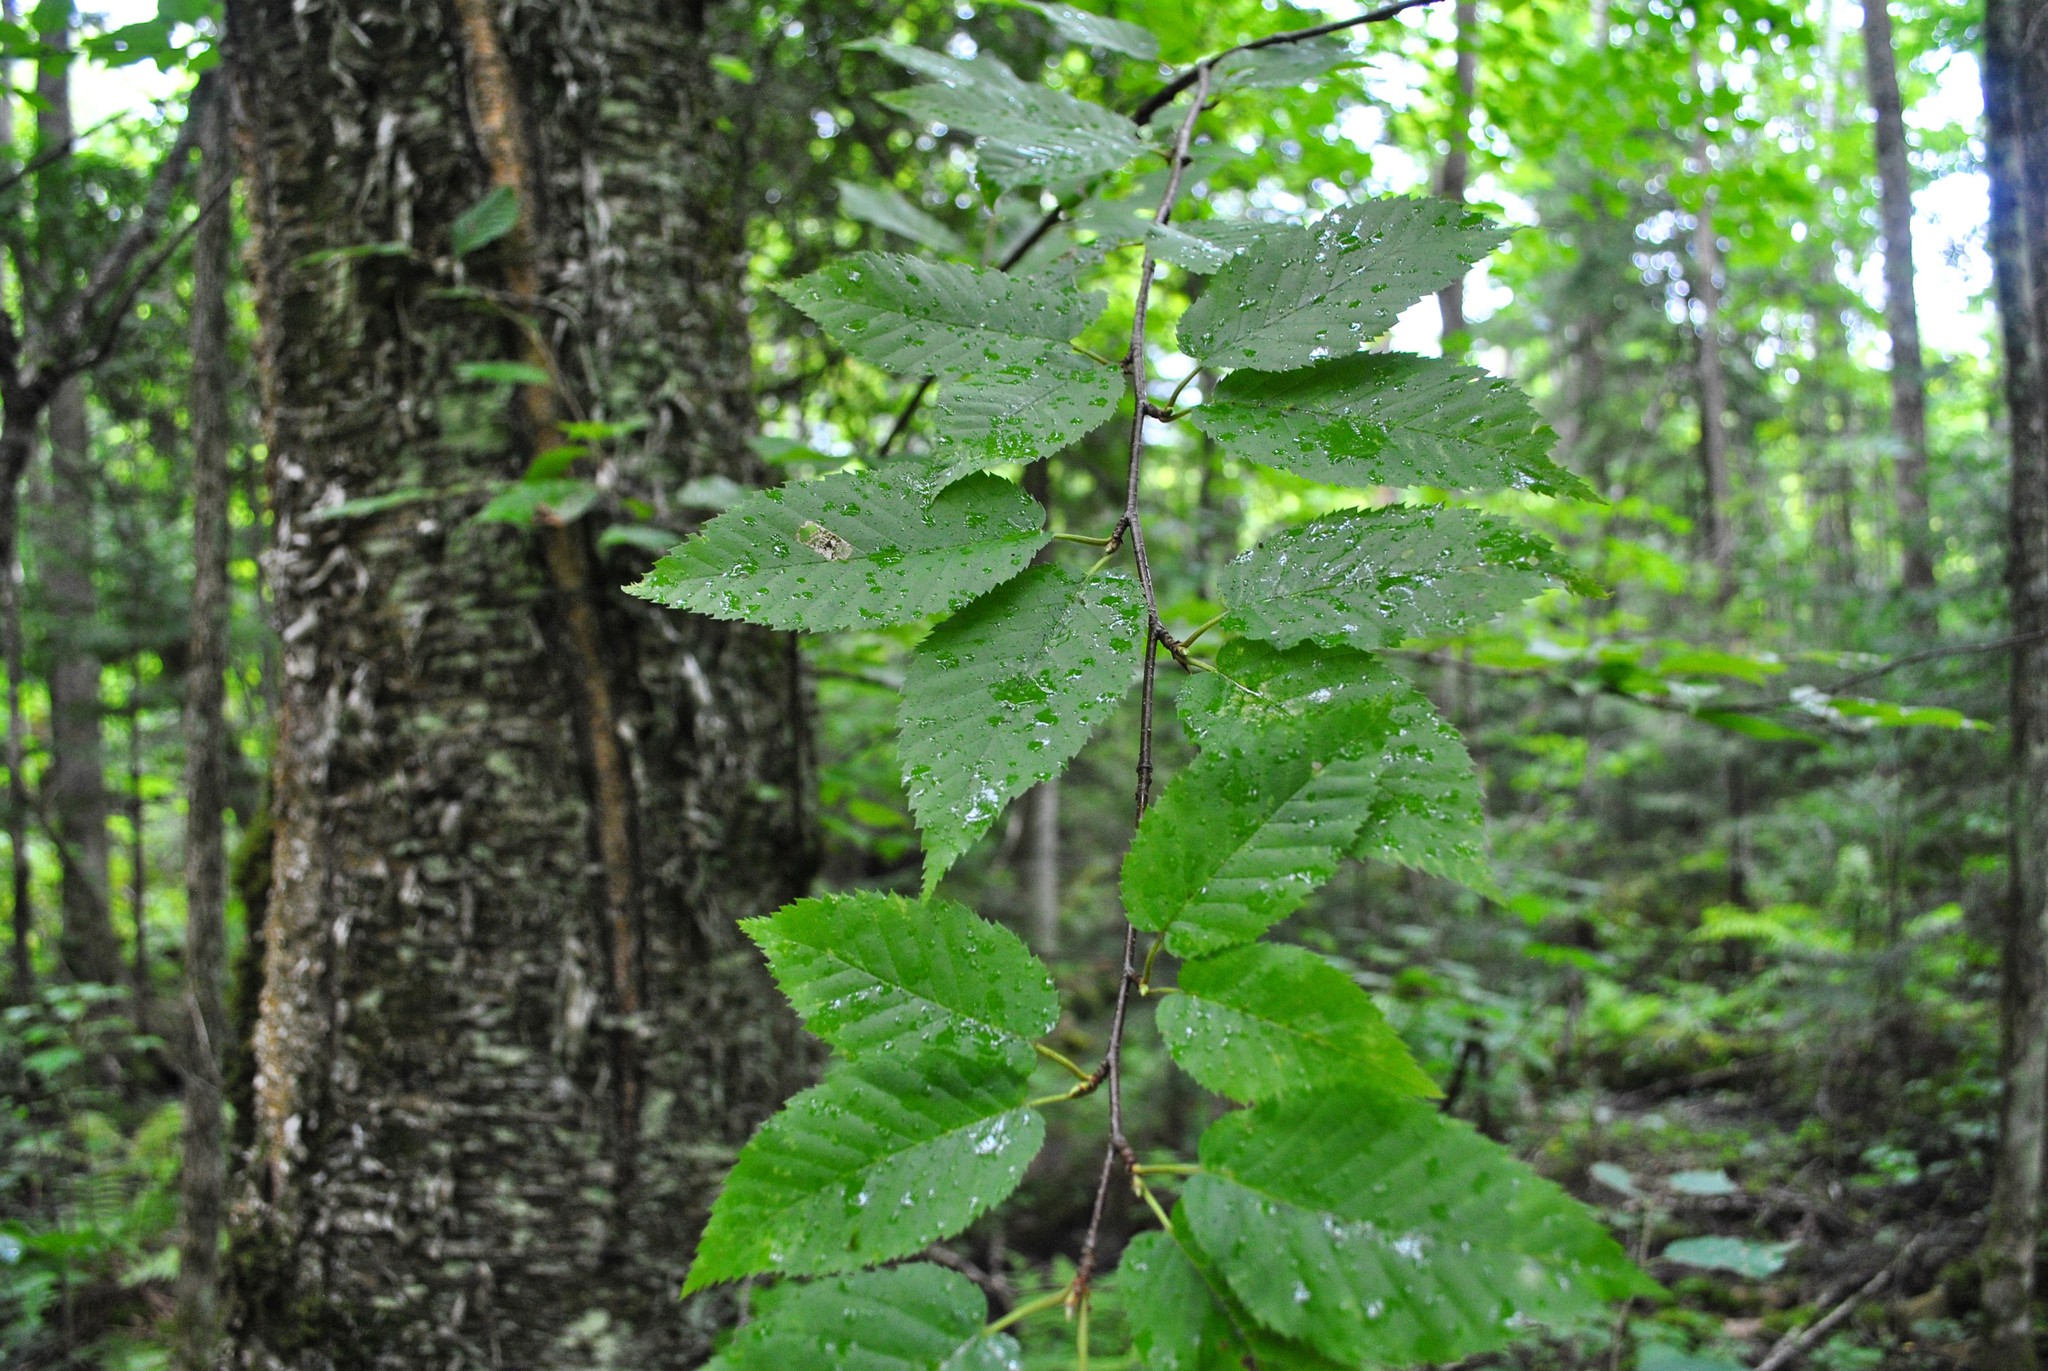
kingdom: Plantae
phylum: Tracheophyta
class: Magnoliopsida
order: Fagales
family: Betulaceae
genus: Betula
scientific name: Betula alleghaniensis
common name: Yellow birch
